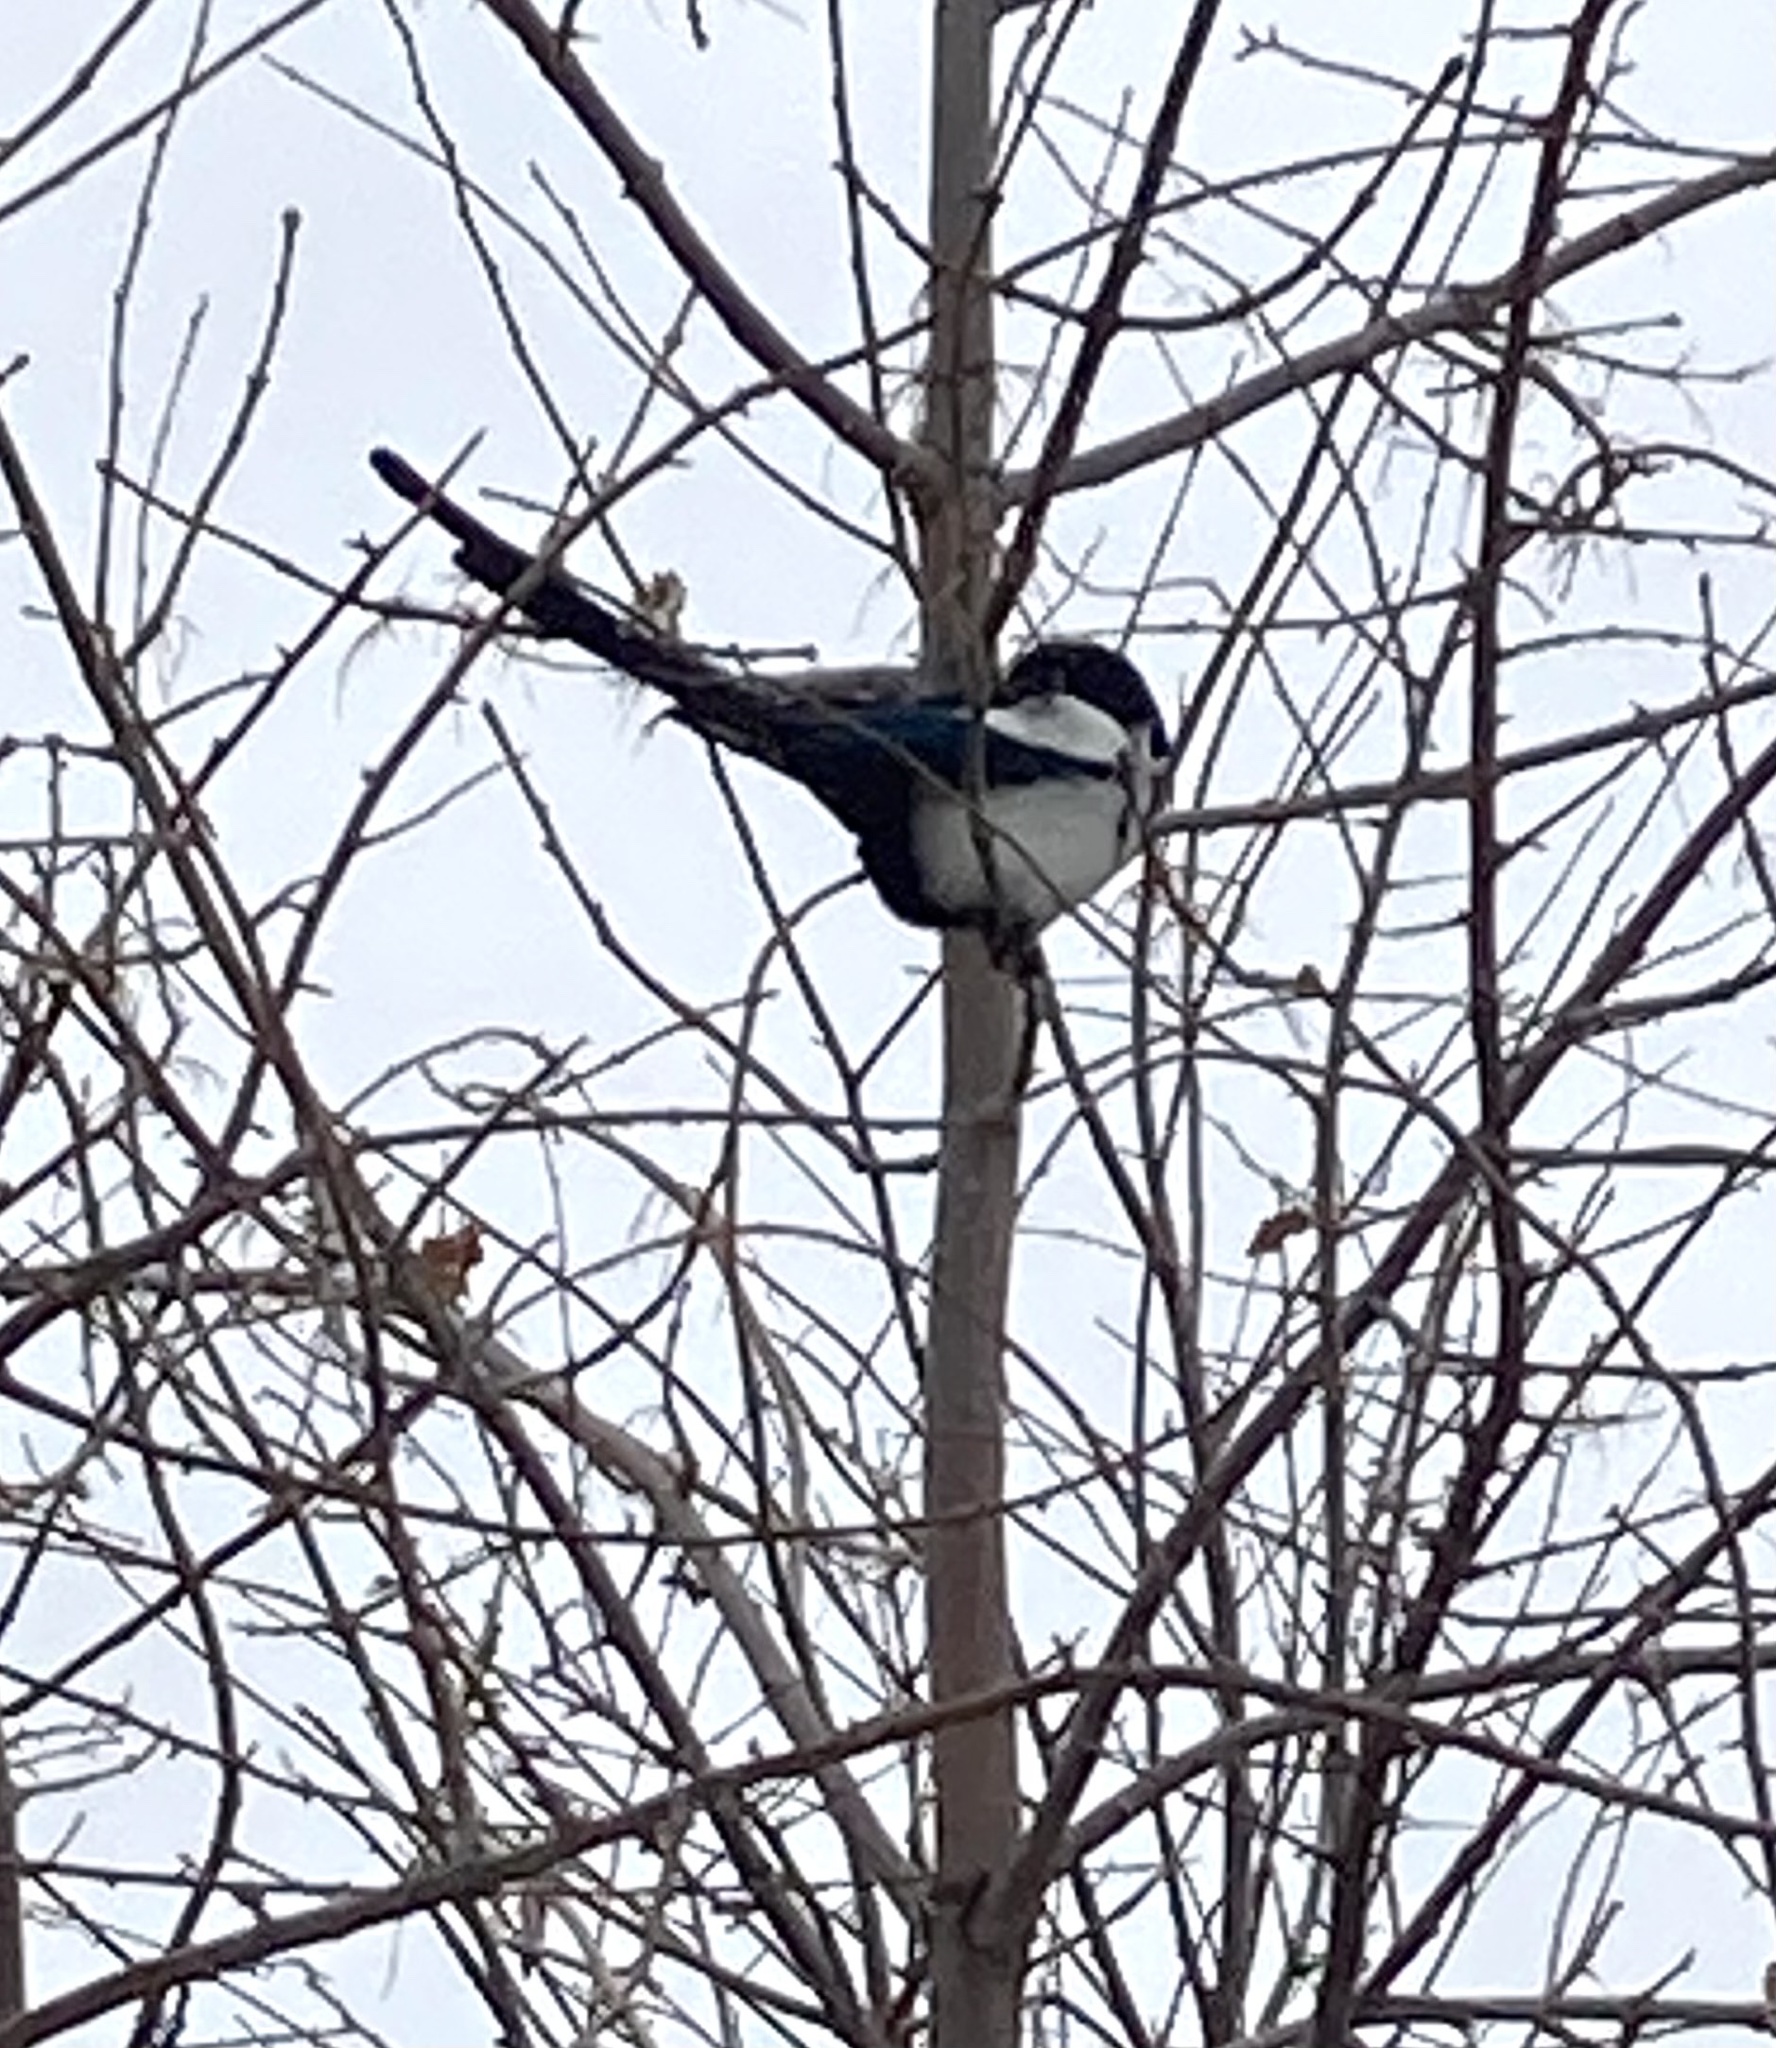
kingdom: Animalia
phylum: Chordata
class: Aves
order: Passeriformes
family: Corvidae
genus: Pica
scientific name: Pica hudsonia
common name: Black-billed magpie
